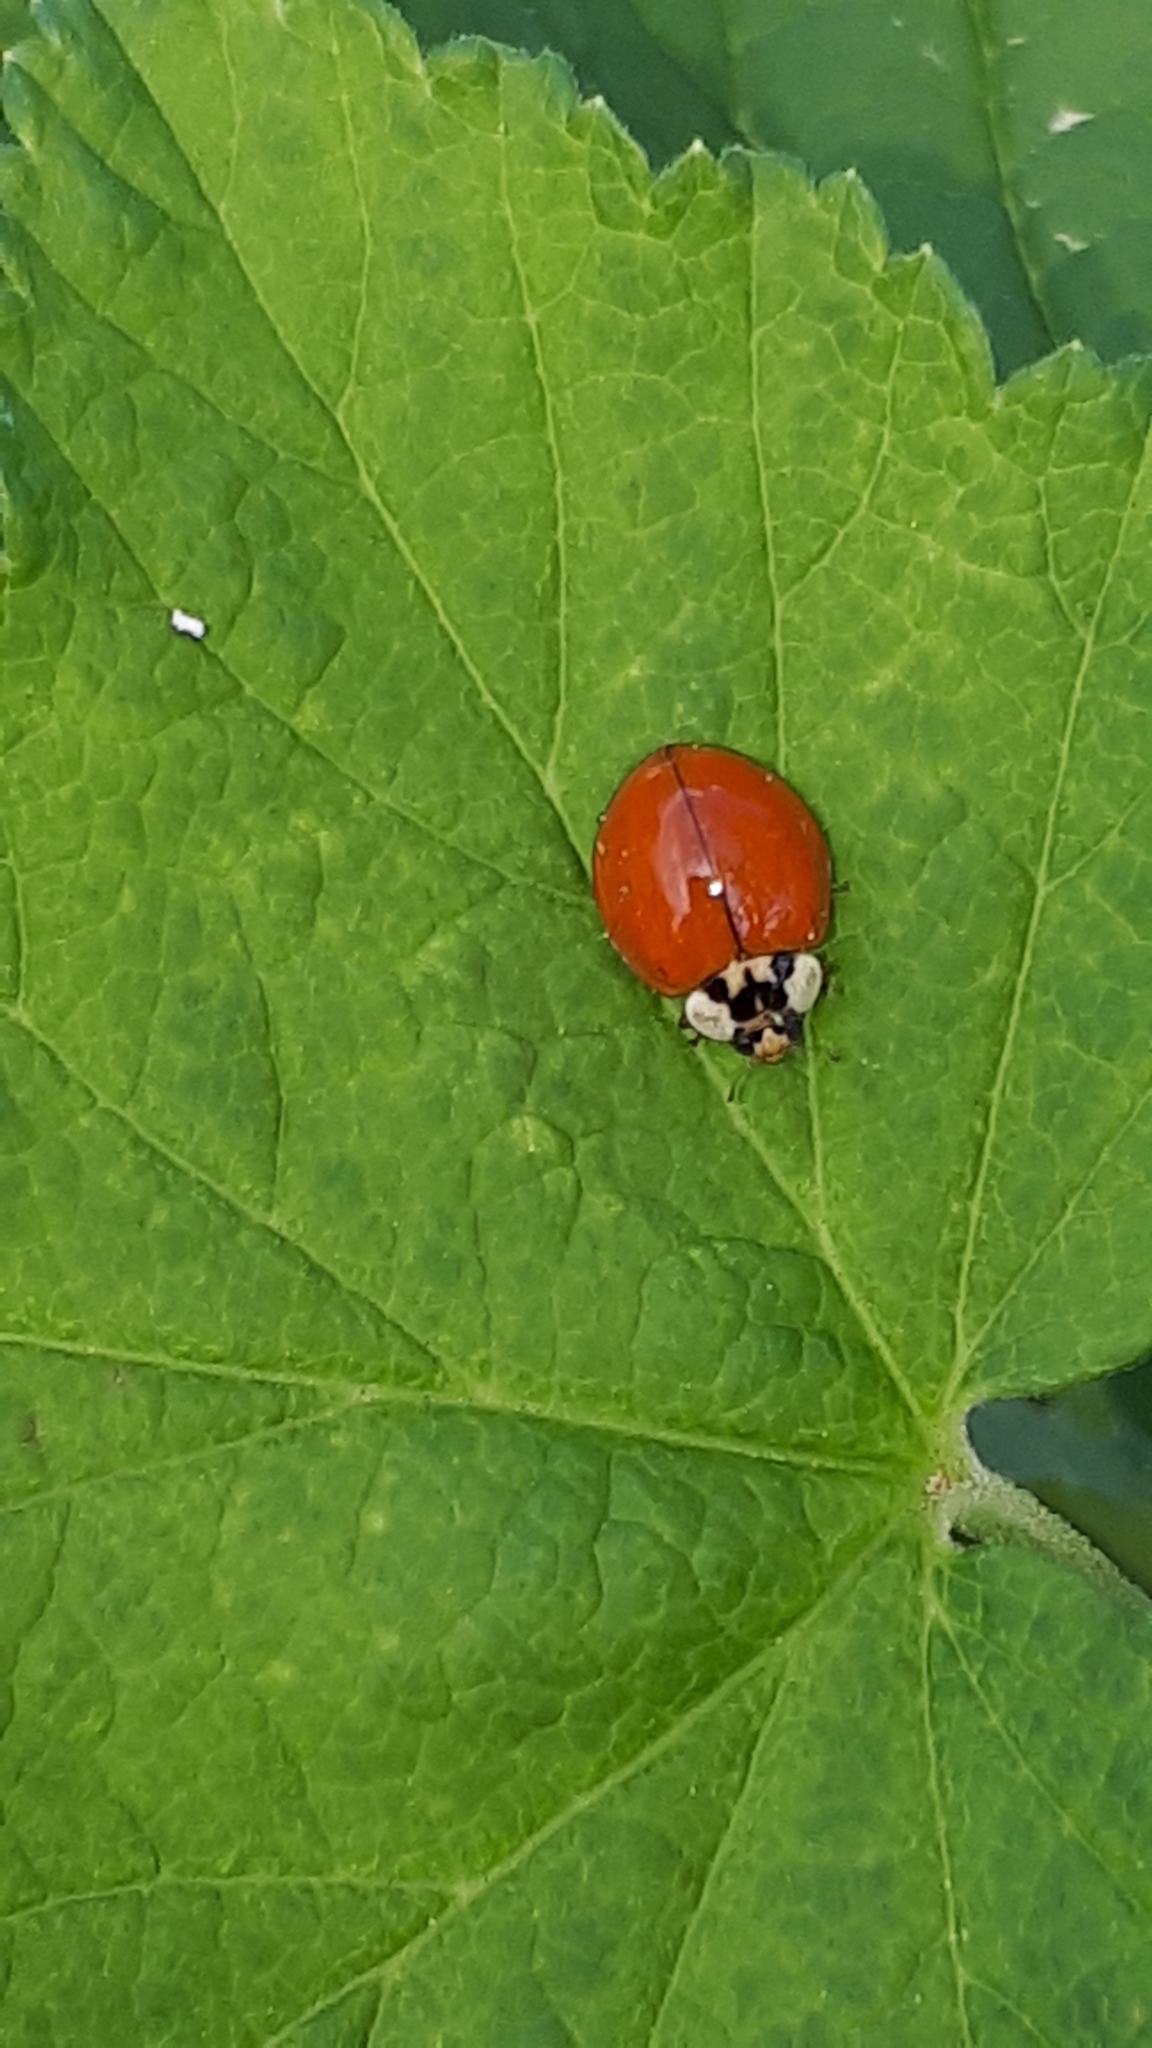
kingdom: Animalia
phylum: Arthropoda
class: Insecta
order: Coleoptera
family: Coccinellidae
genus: Harmonia
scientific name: Harmonia axyridis
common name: Harlequin ladybird
